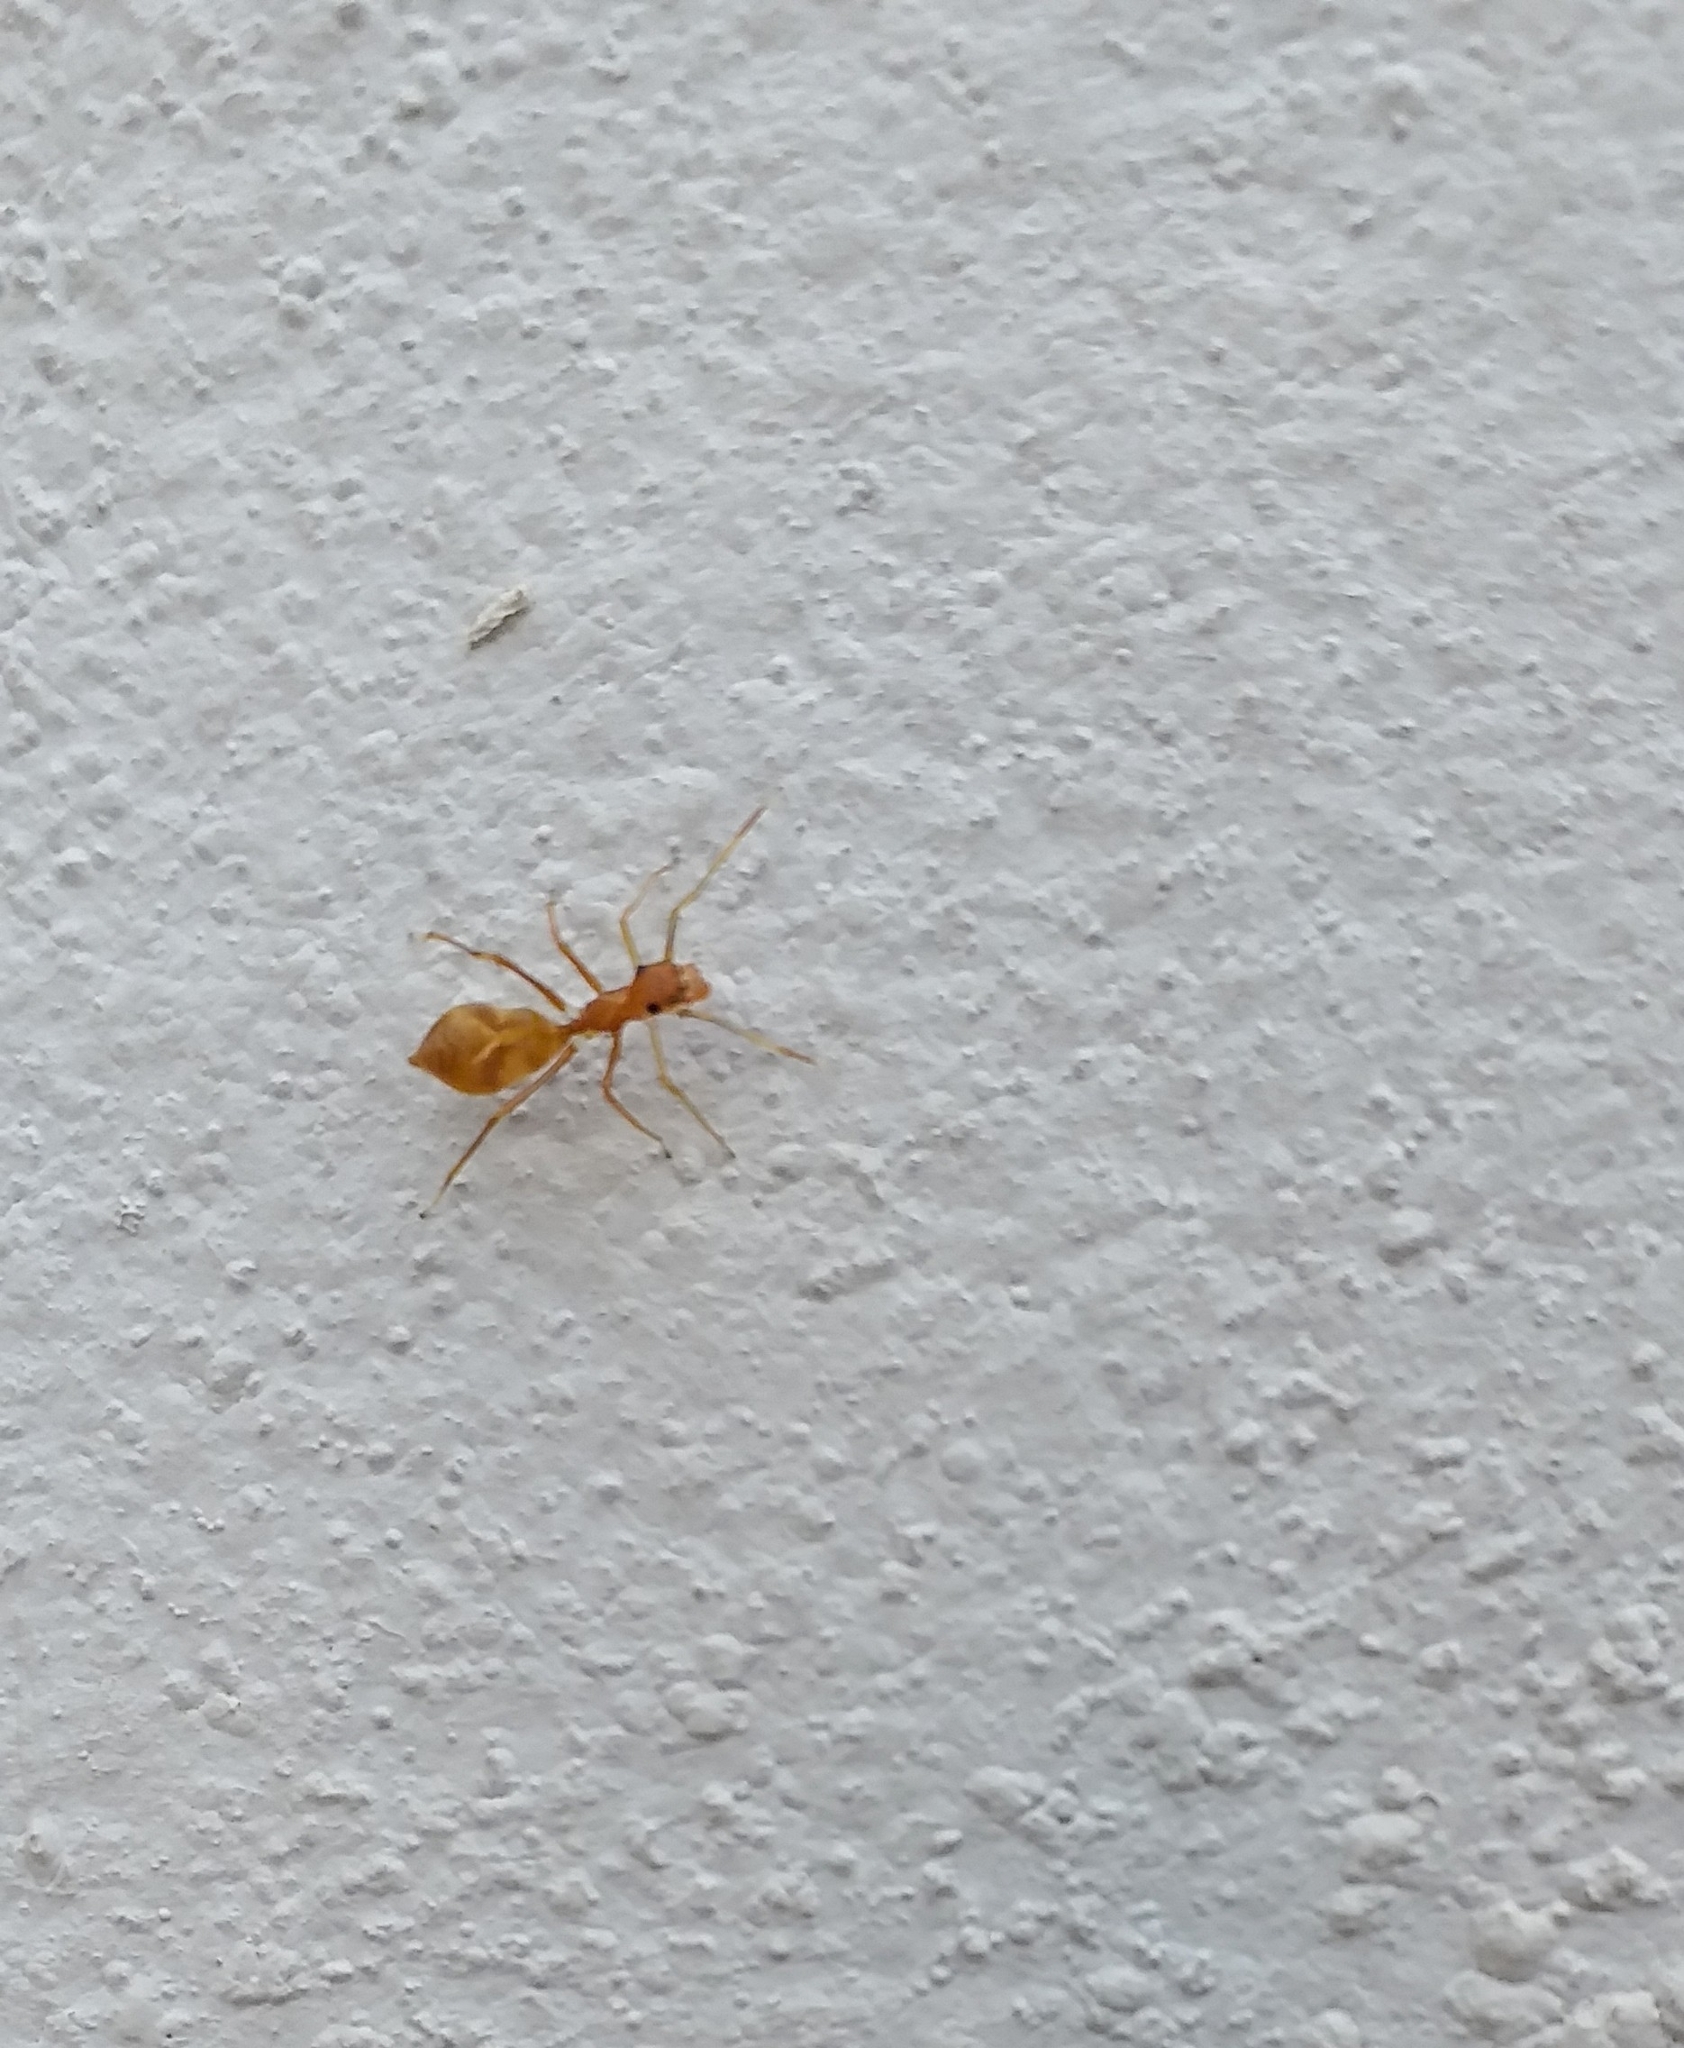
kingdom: Animalia
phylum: Arthropoda
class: Arachnida
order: Araneae
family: Salticidae
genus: Myrmaplata
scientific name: Myrmaplata plataleoides
